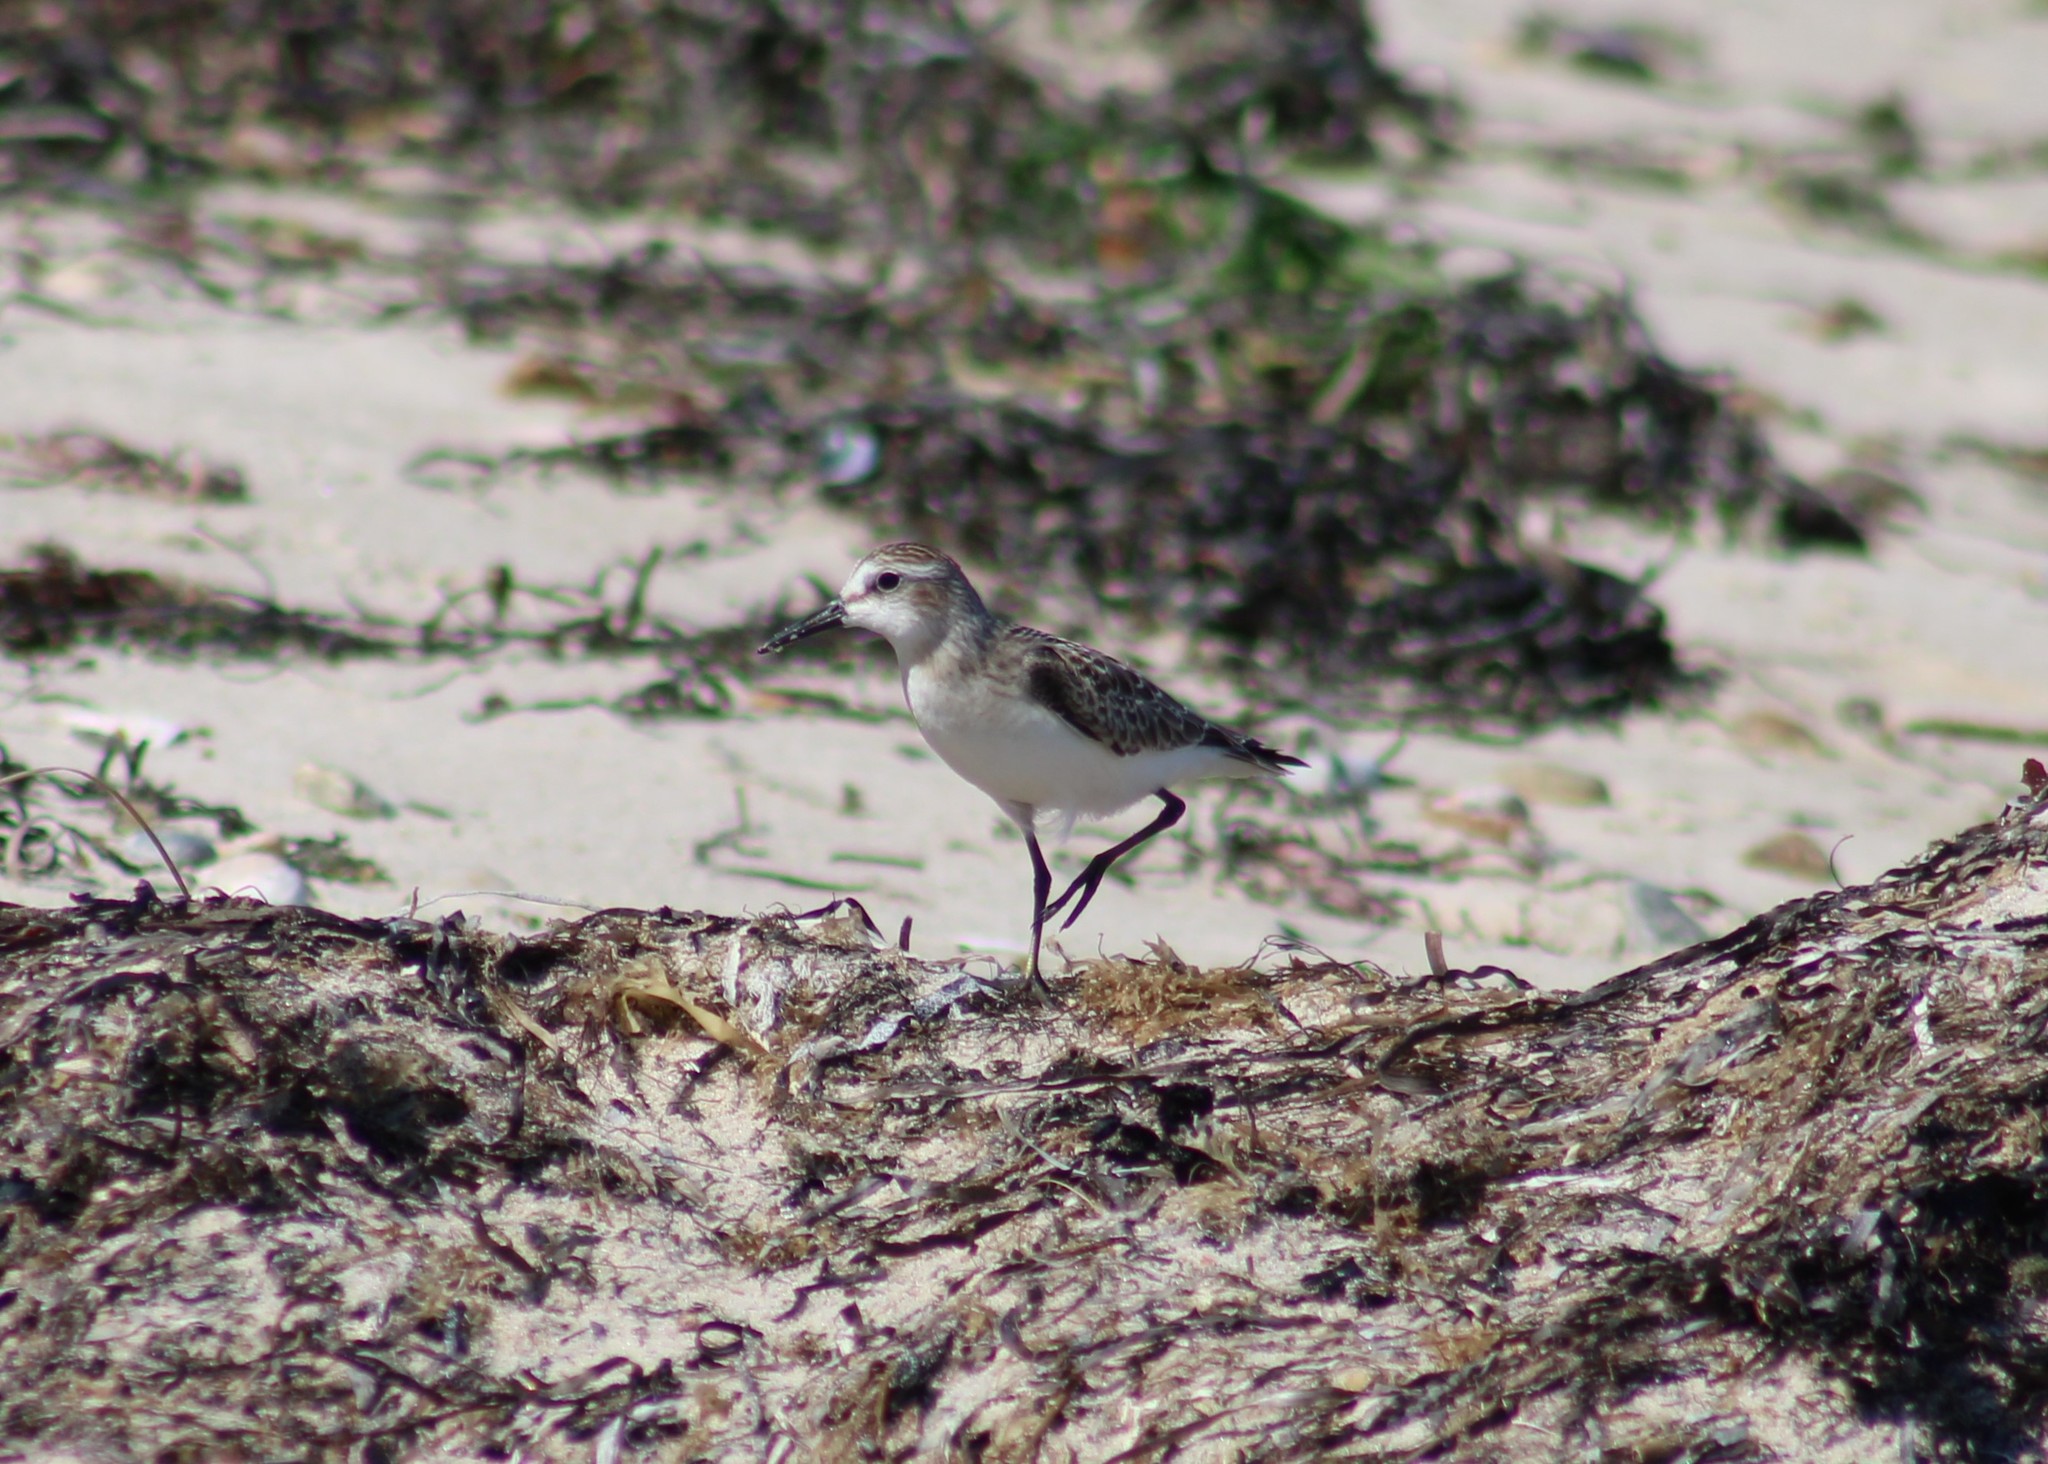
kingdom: Animalia
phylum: Chordata
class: Aves
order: Charadriiformes
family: Scolopacidae
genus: Calidris
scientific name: Calidris pusilla
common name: Semipalmated sandpiper
